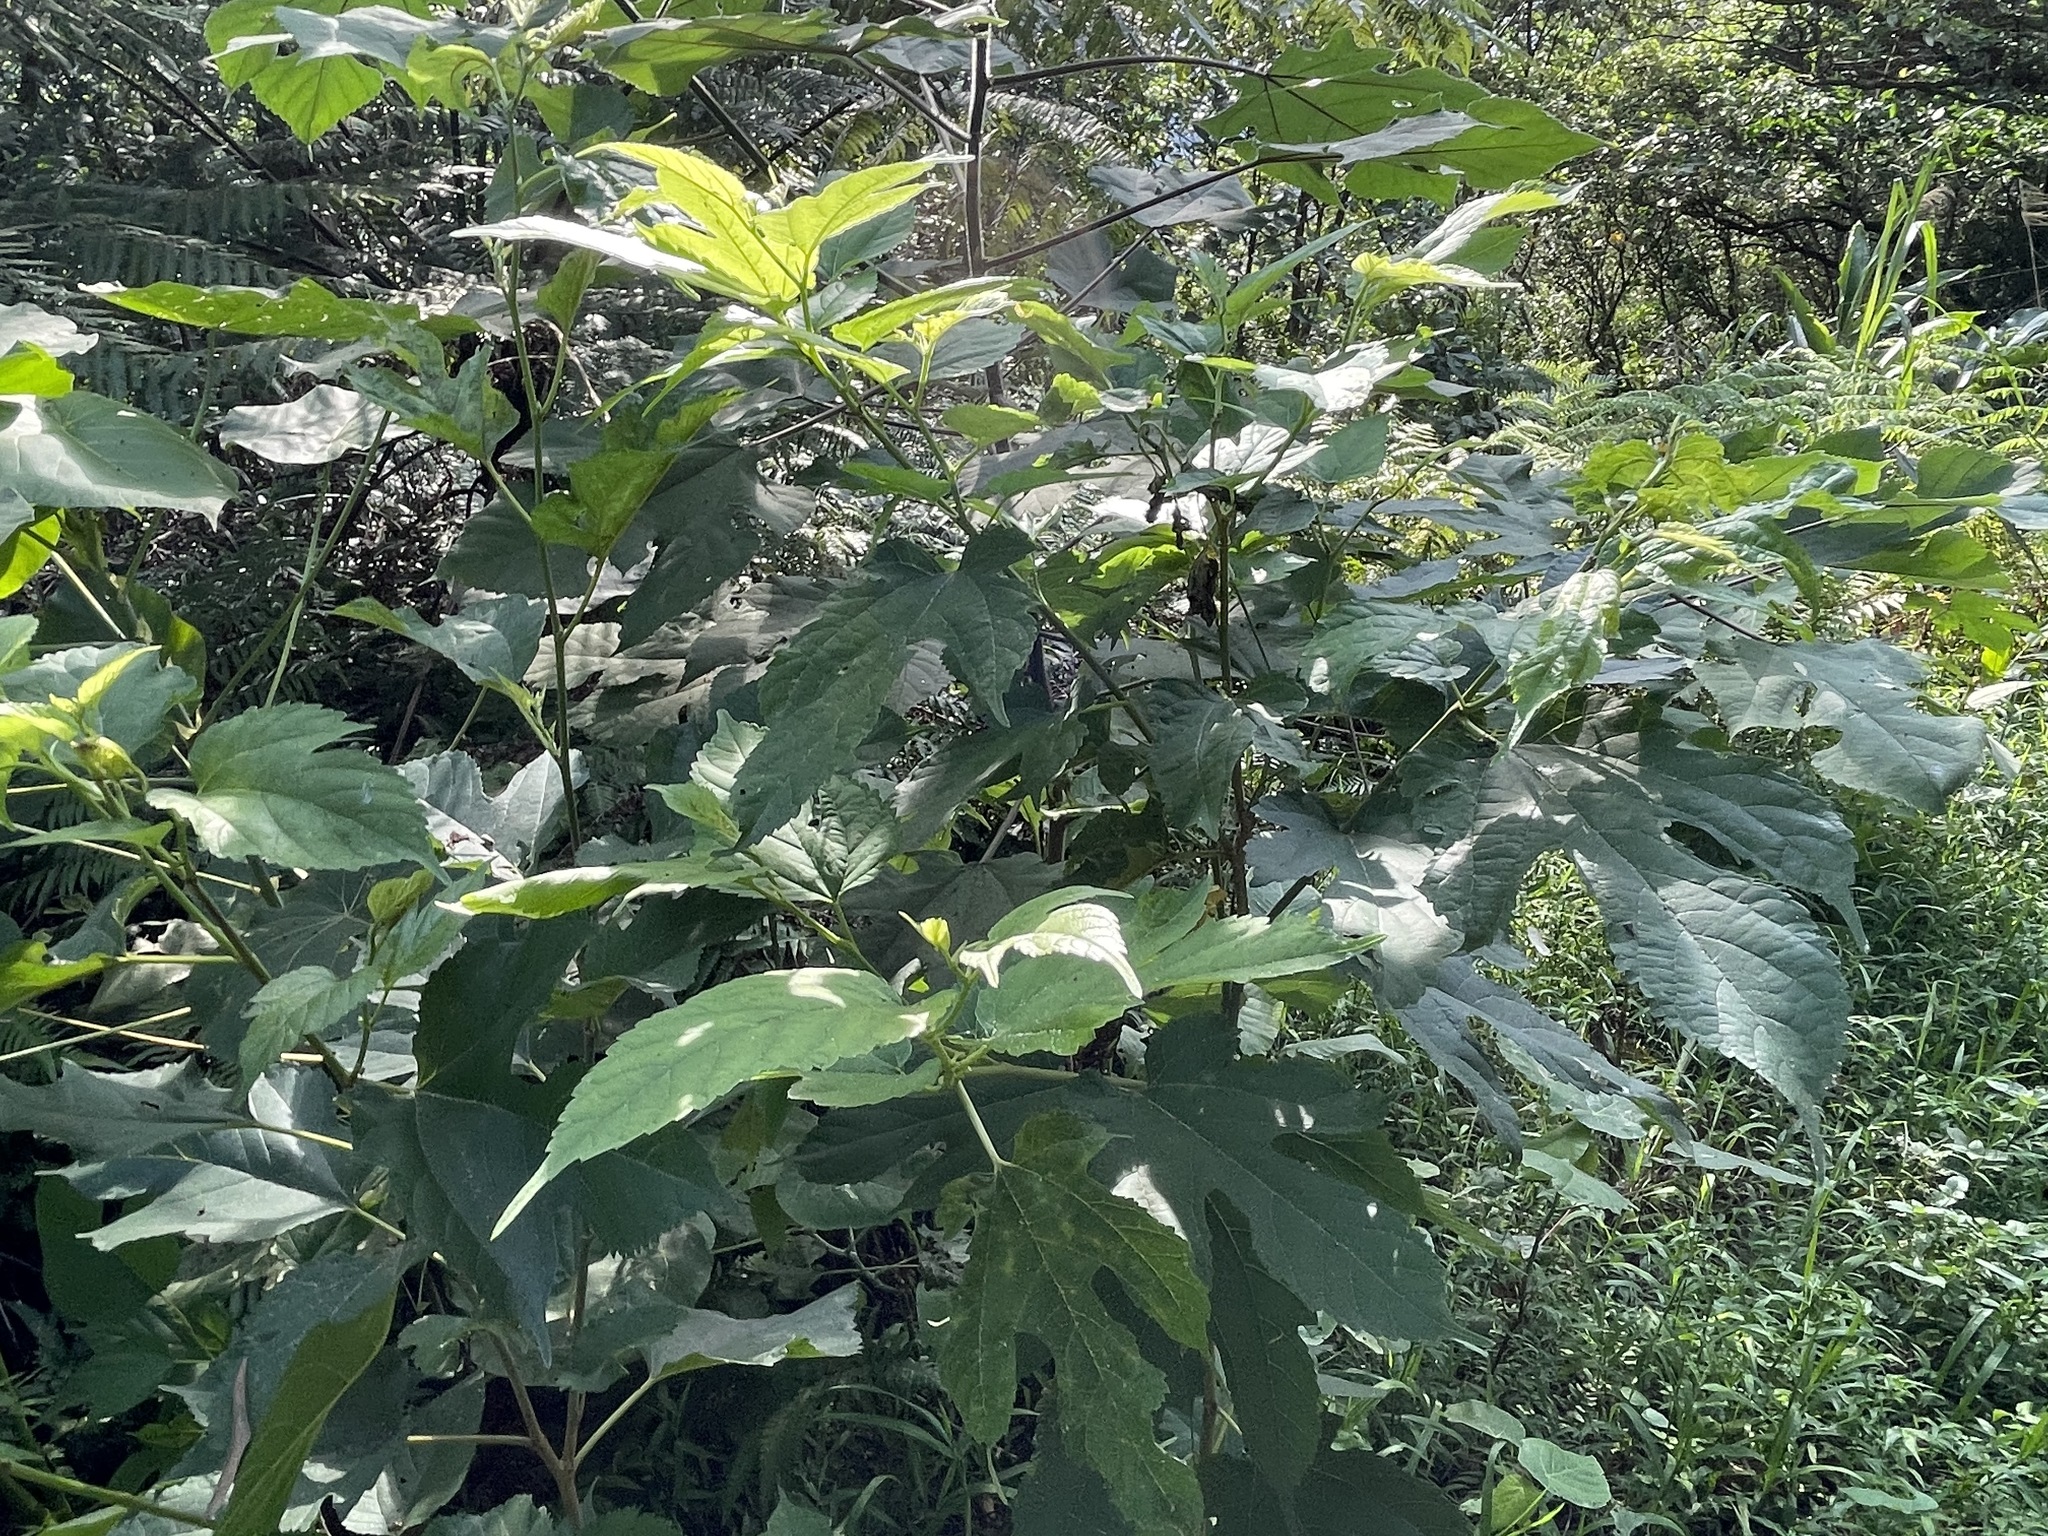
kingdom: Plantae
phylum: Tracheophyta
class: Magnoliopsida
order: Rosales
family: Moraceae
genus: Morus
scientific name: Morus indica
